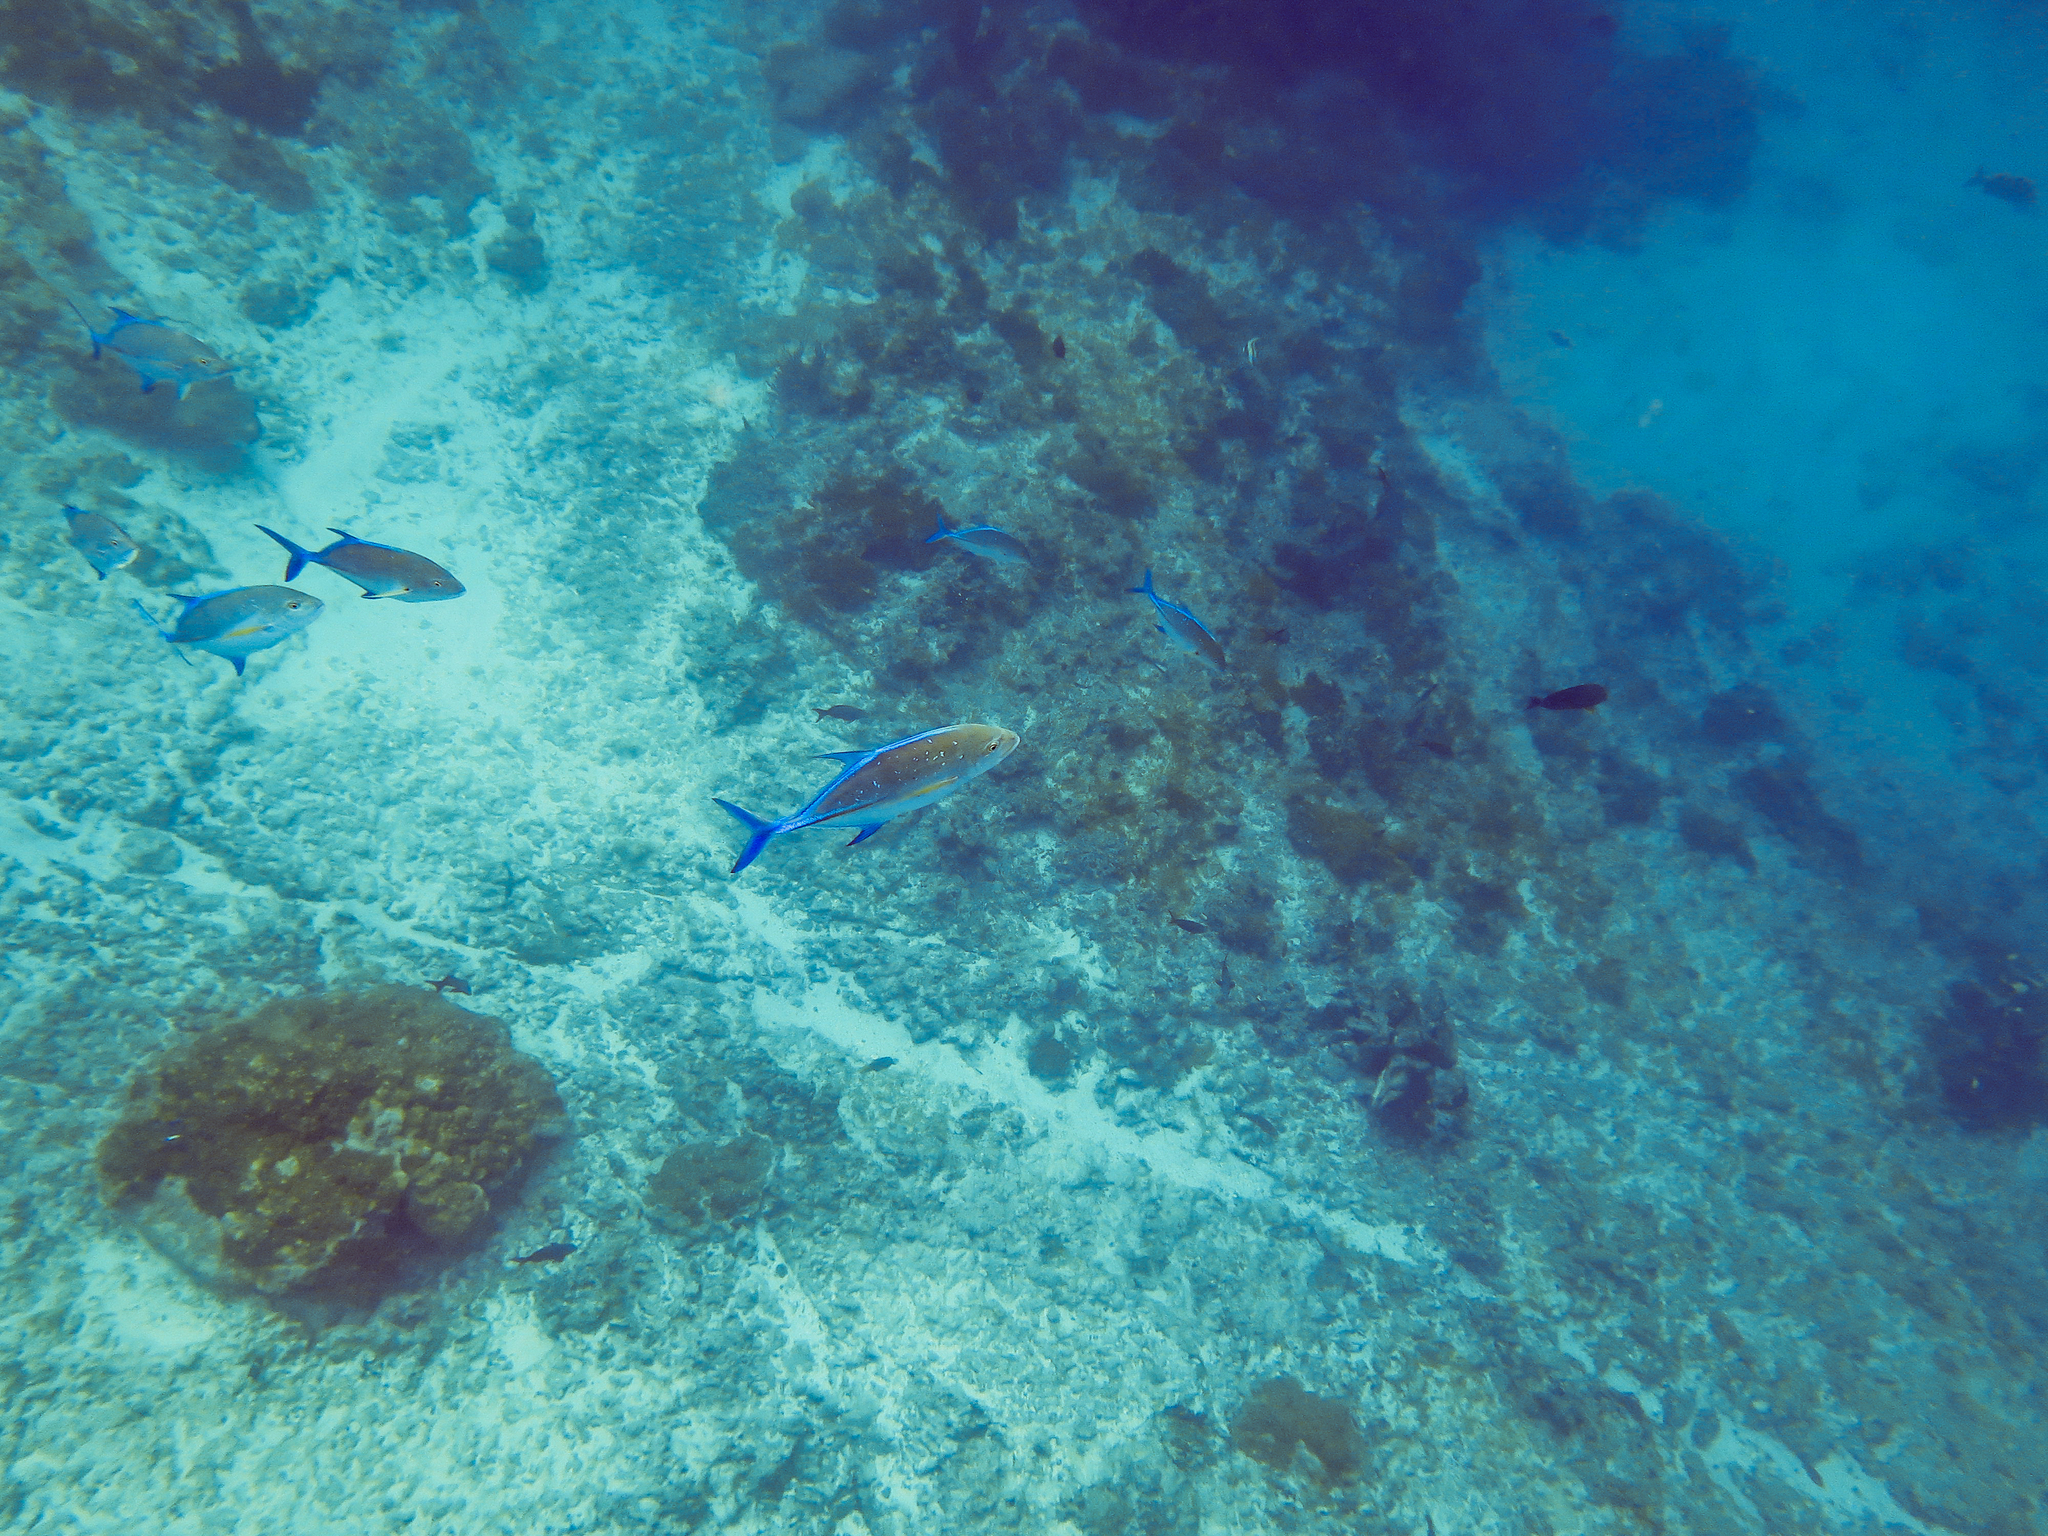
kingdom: Animalia
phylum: Chordata
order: Perciformes
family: Carangidae
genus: Caranx
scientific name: Caranx melampygus
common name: Bluefin trevally
